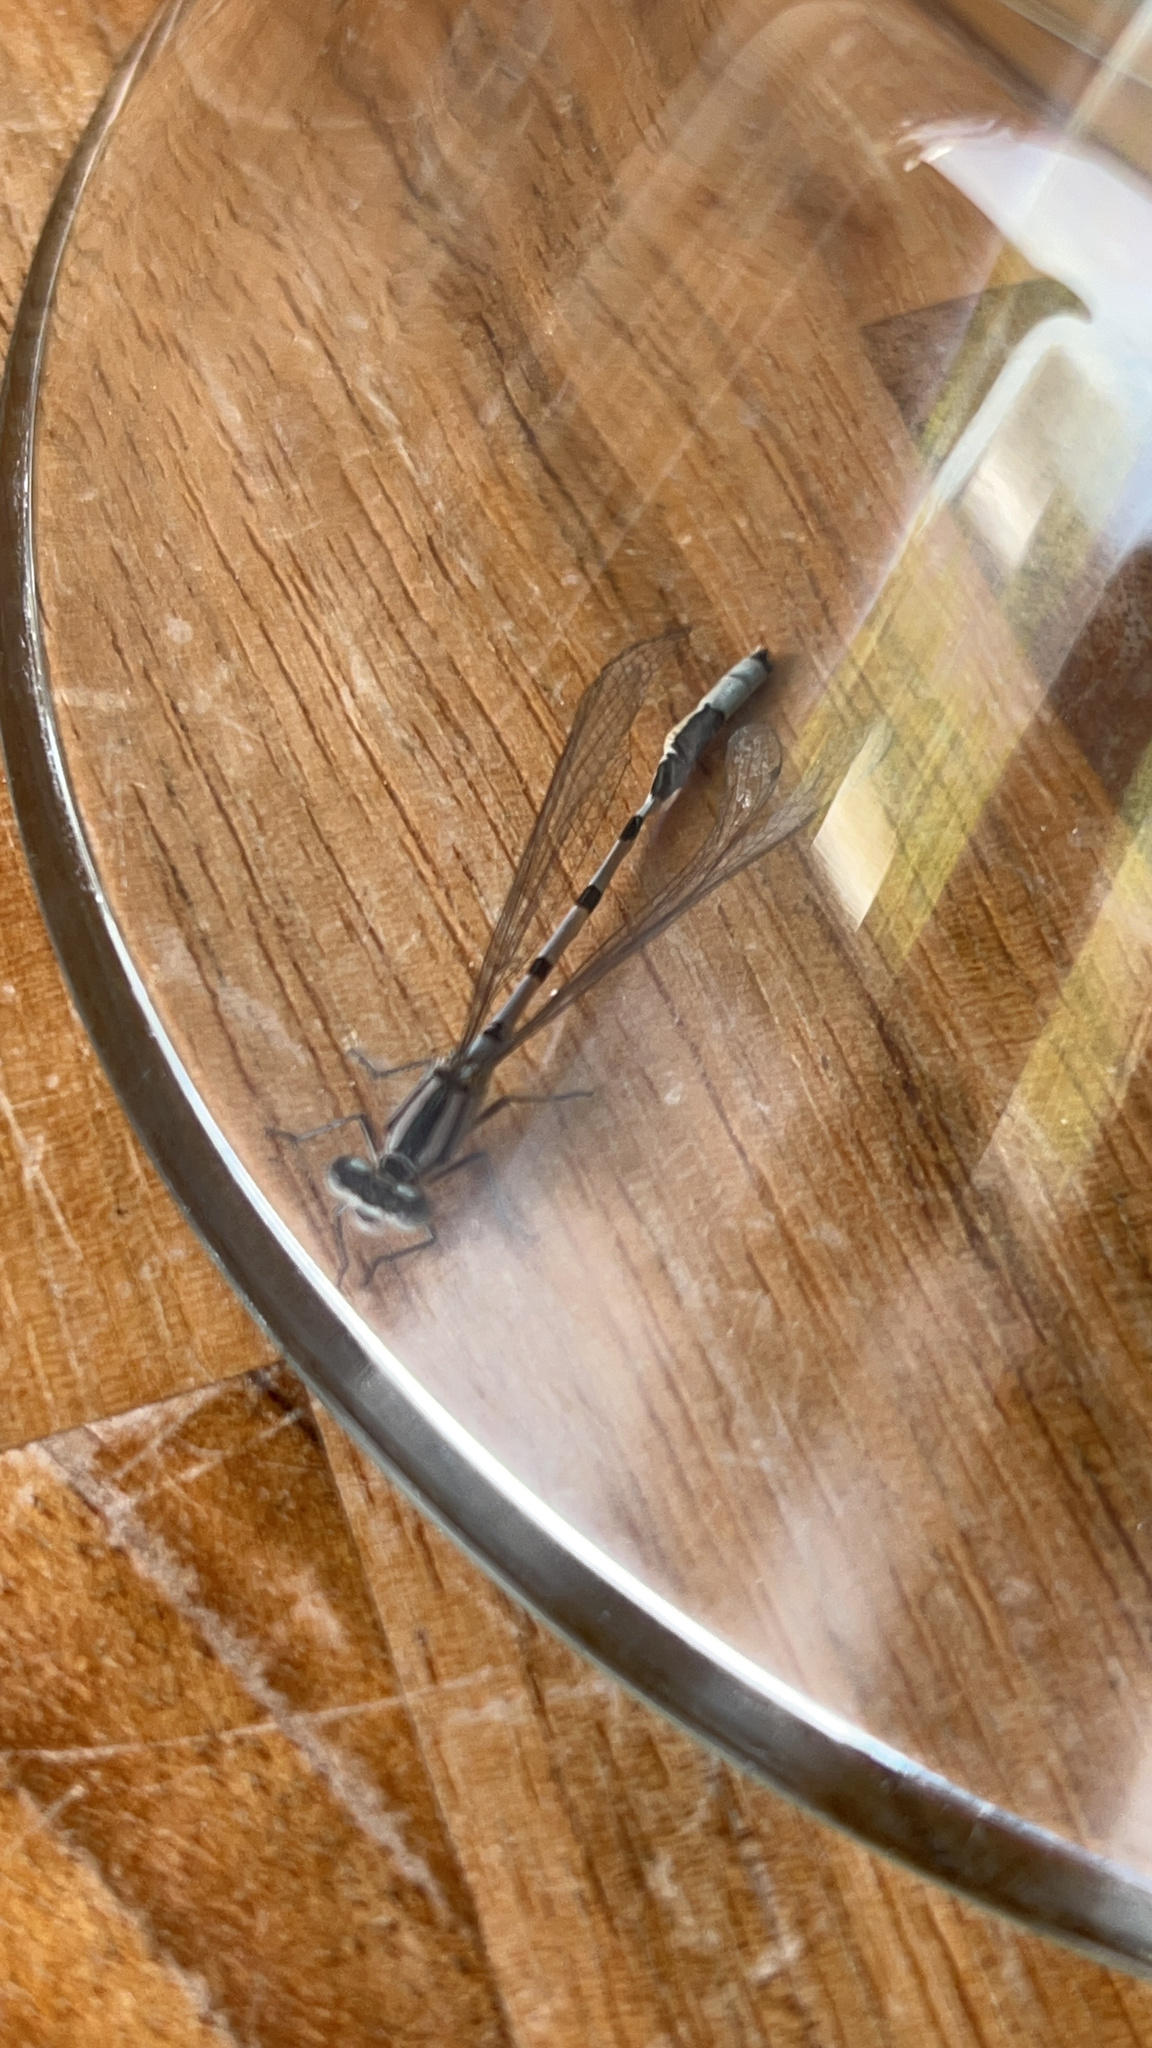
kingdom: Animalia
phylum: Arthropoda
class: Insecta
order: Odonata
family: Coenagrionidae
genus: Enallagma
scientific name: Enallagma cyathigerum
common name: Common blue damselfly
